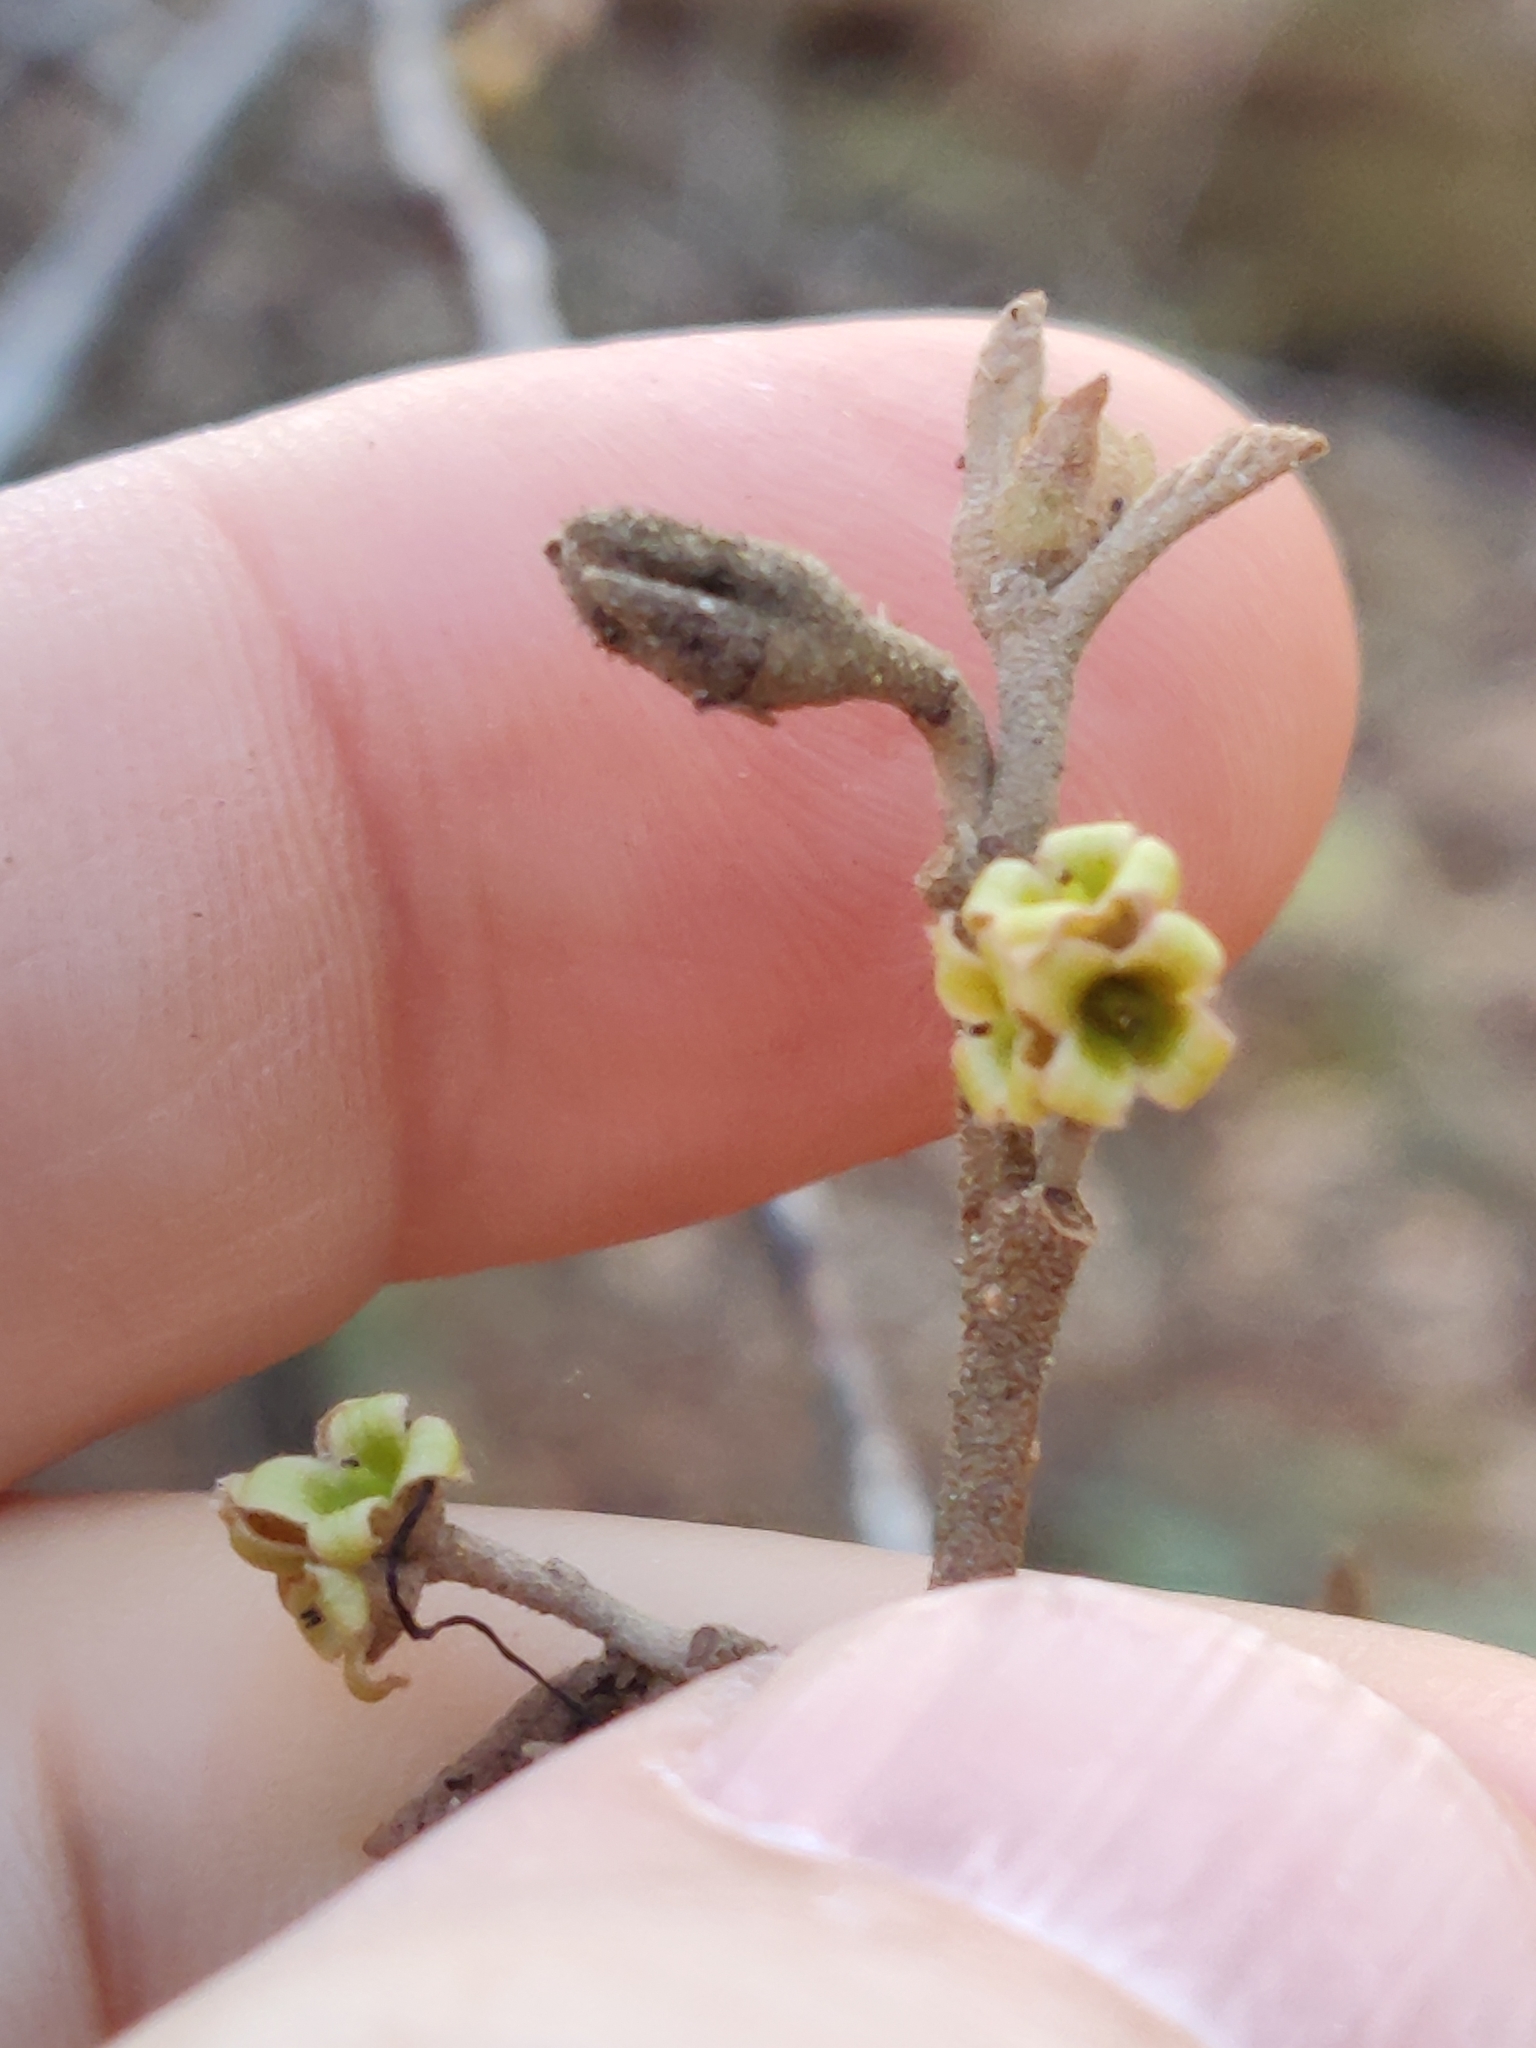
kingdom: Plantae
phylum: Tracheophyta
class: Magnoliopsida
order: Saxifragales
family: Hamamelidaceae
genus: Hamamelis
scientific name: Hamamelis virginiana
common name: Witch-hazel
